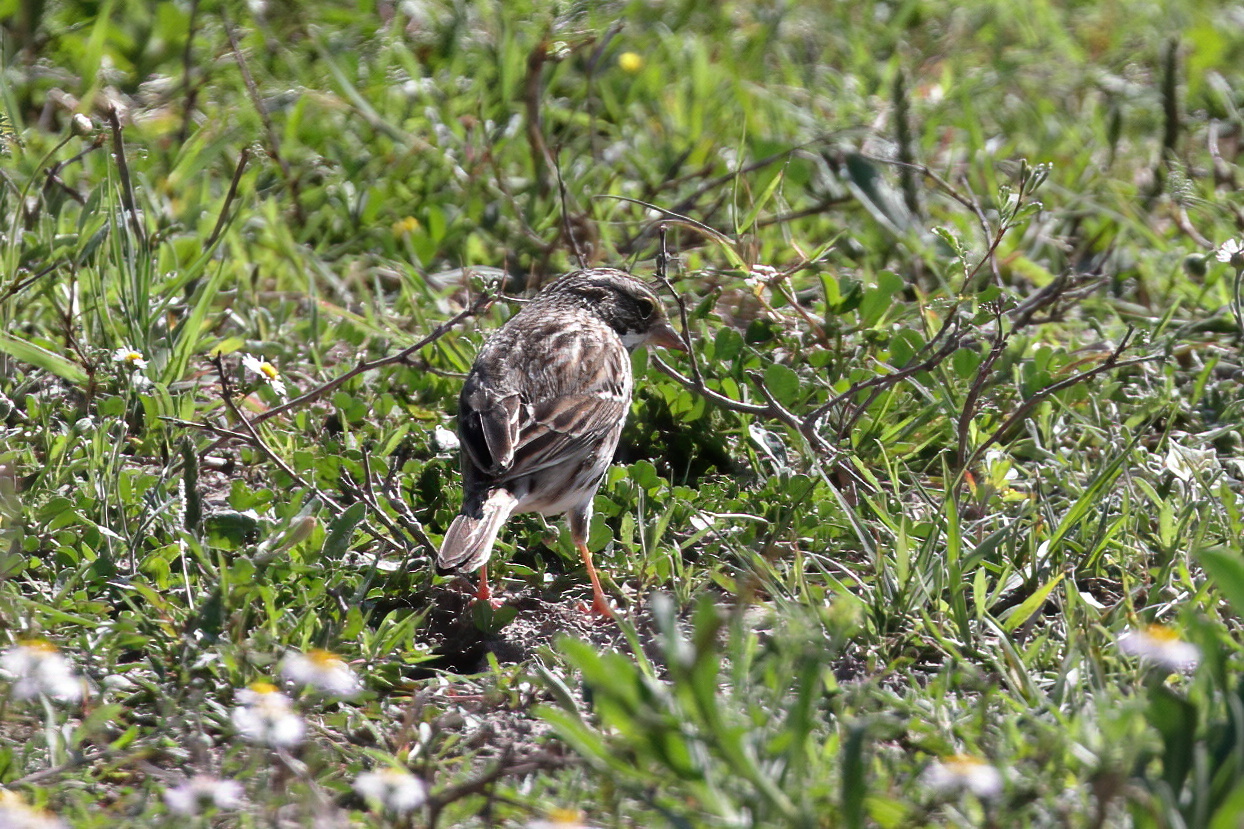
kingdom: Animalia
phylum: Chordata
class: Aves
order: Passeriformes
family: Passerellidae
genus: Passerculus
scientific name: Passerculus sandwichensis
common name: Savannah sparrow
